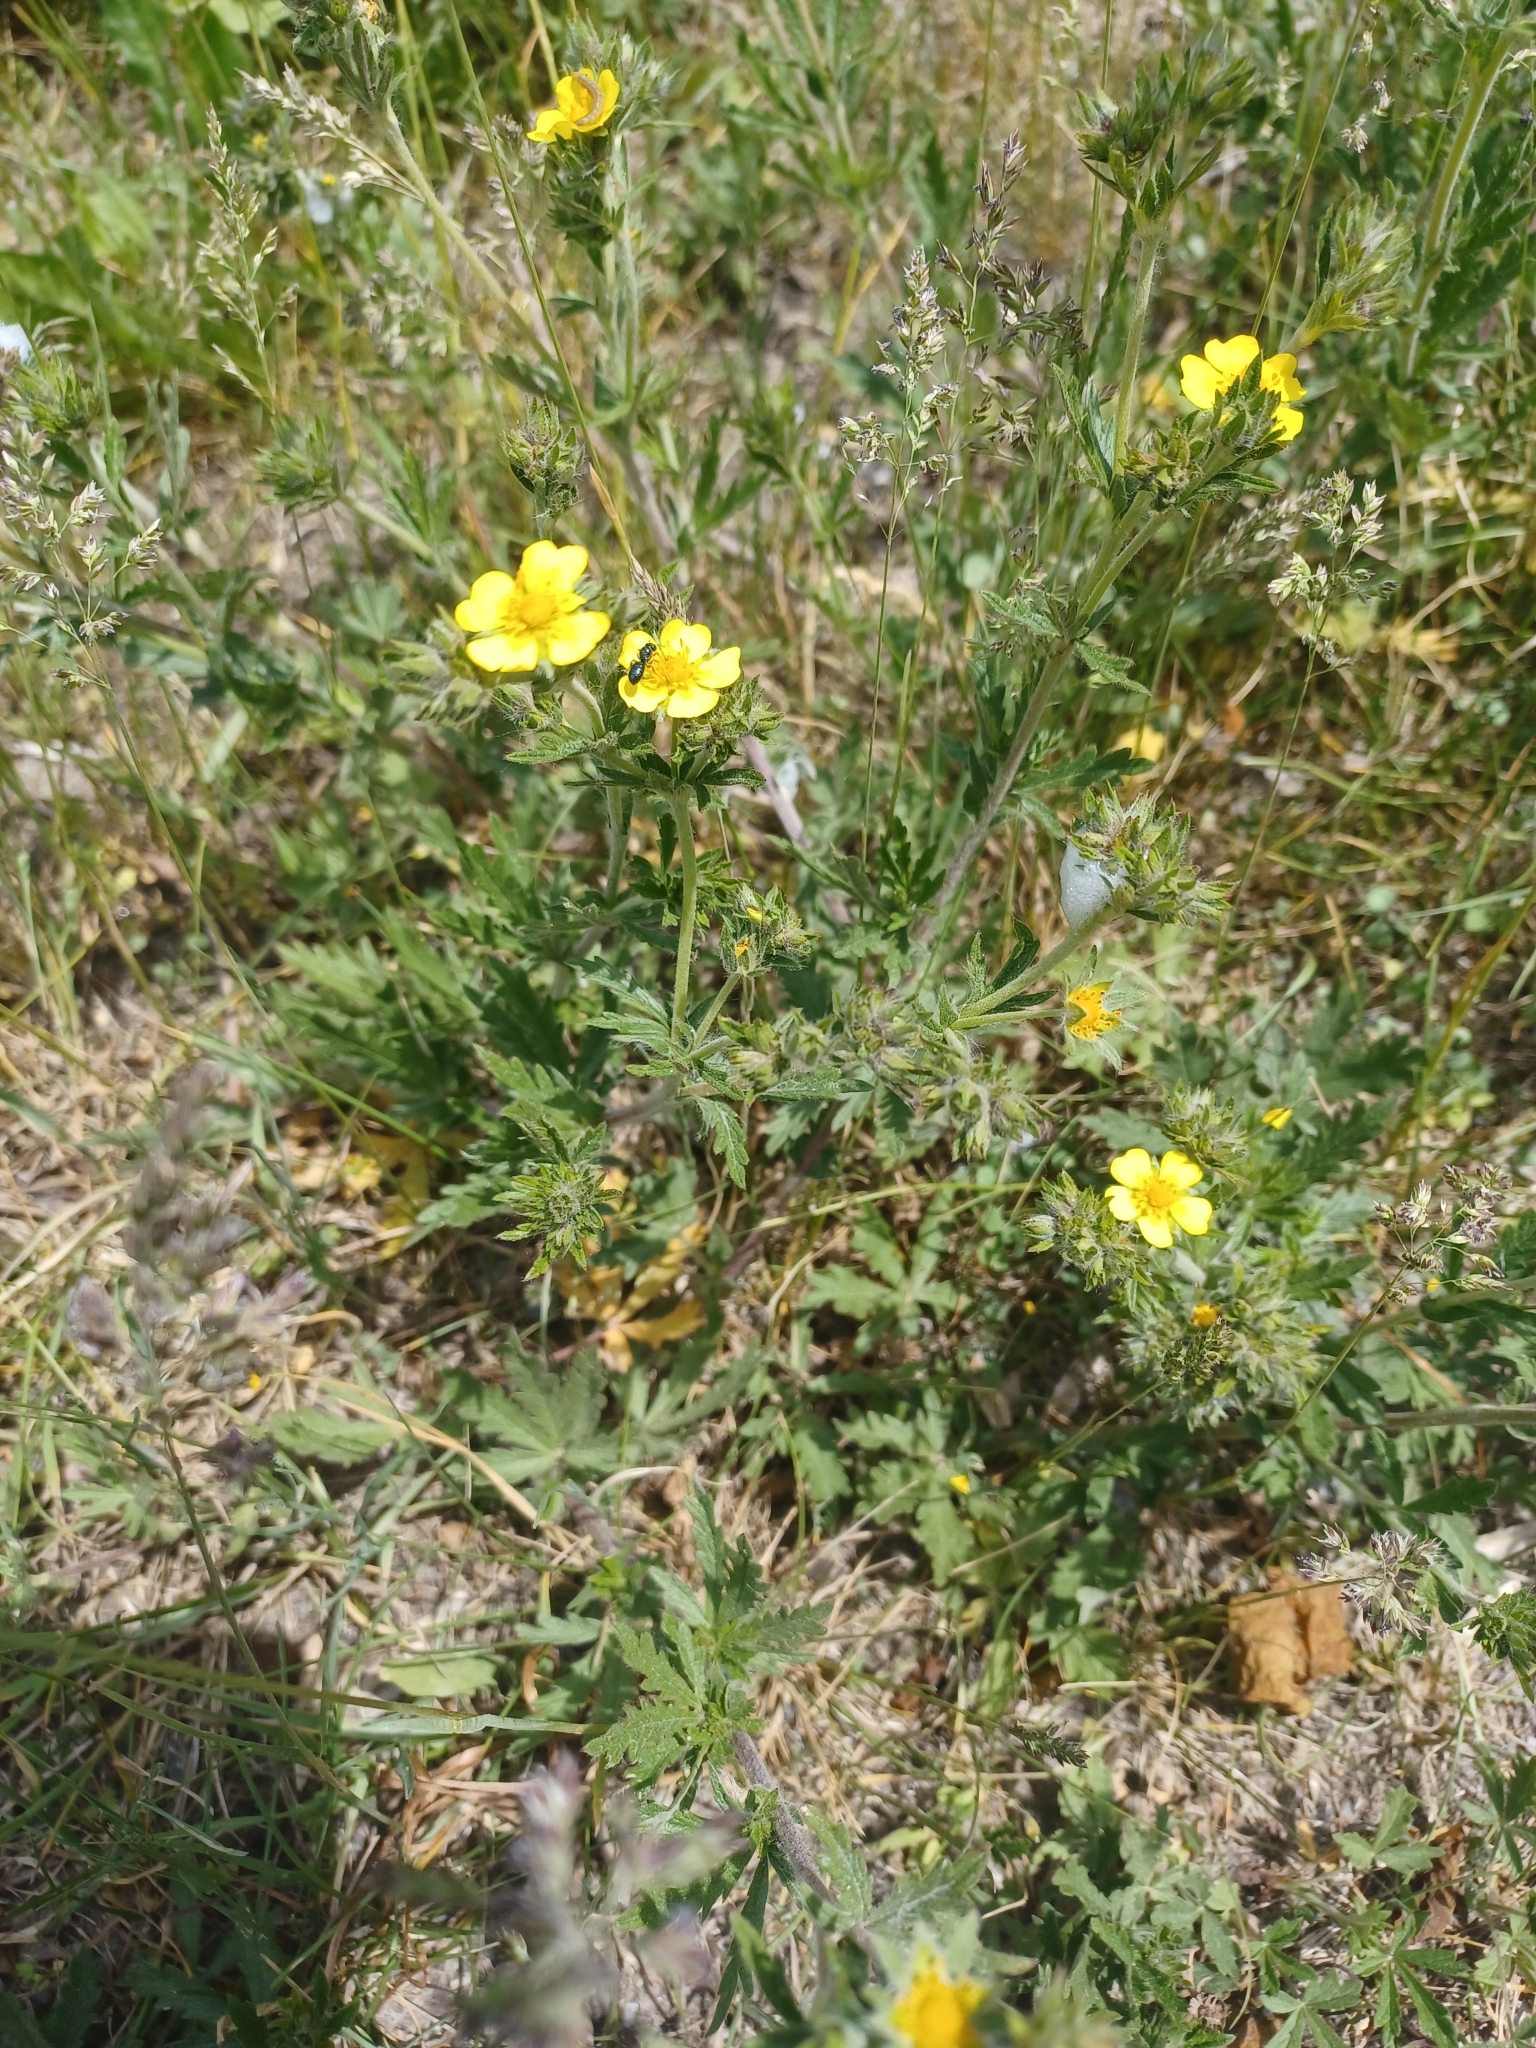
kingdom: Plantae
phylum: Tracheophyta
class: Magnoliopsida
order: Rosales
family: Rosaceae
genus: Potentilla
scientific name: Potentilla recta
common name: Sulphur cinquefoil
